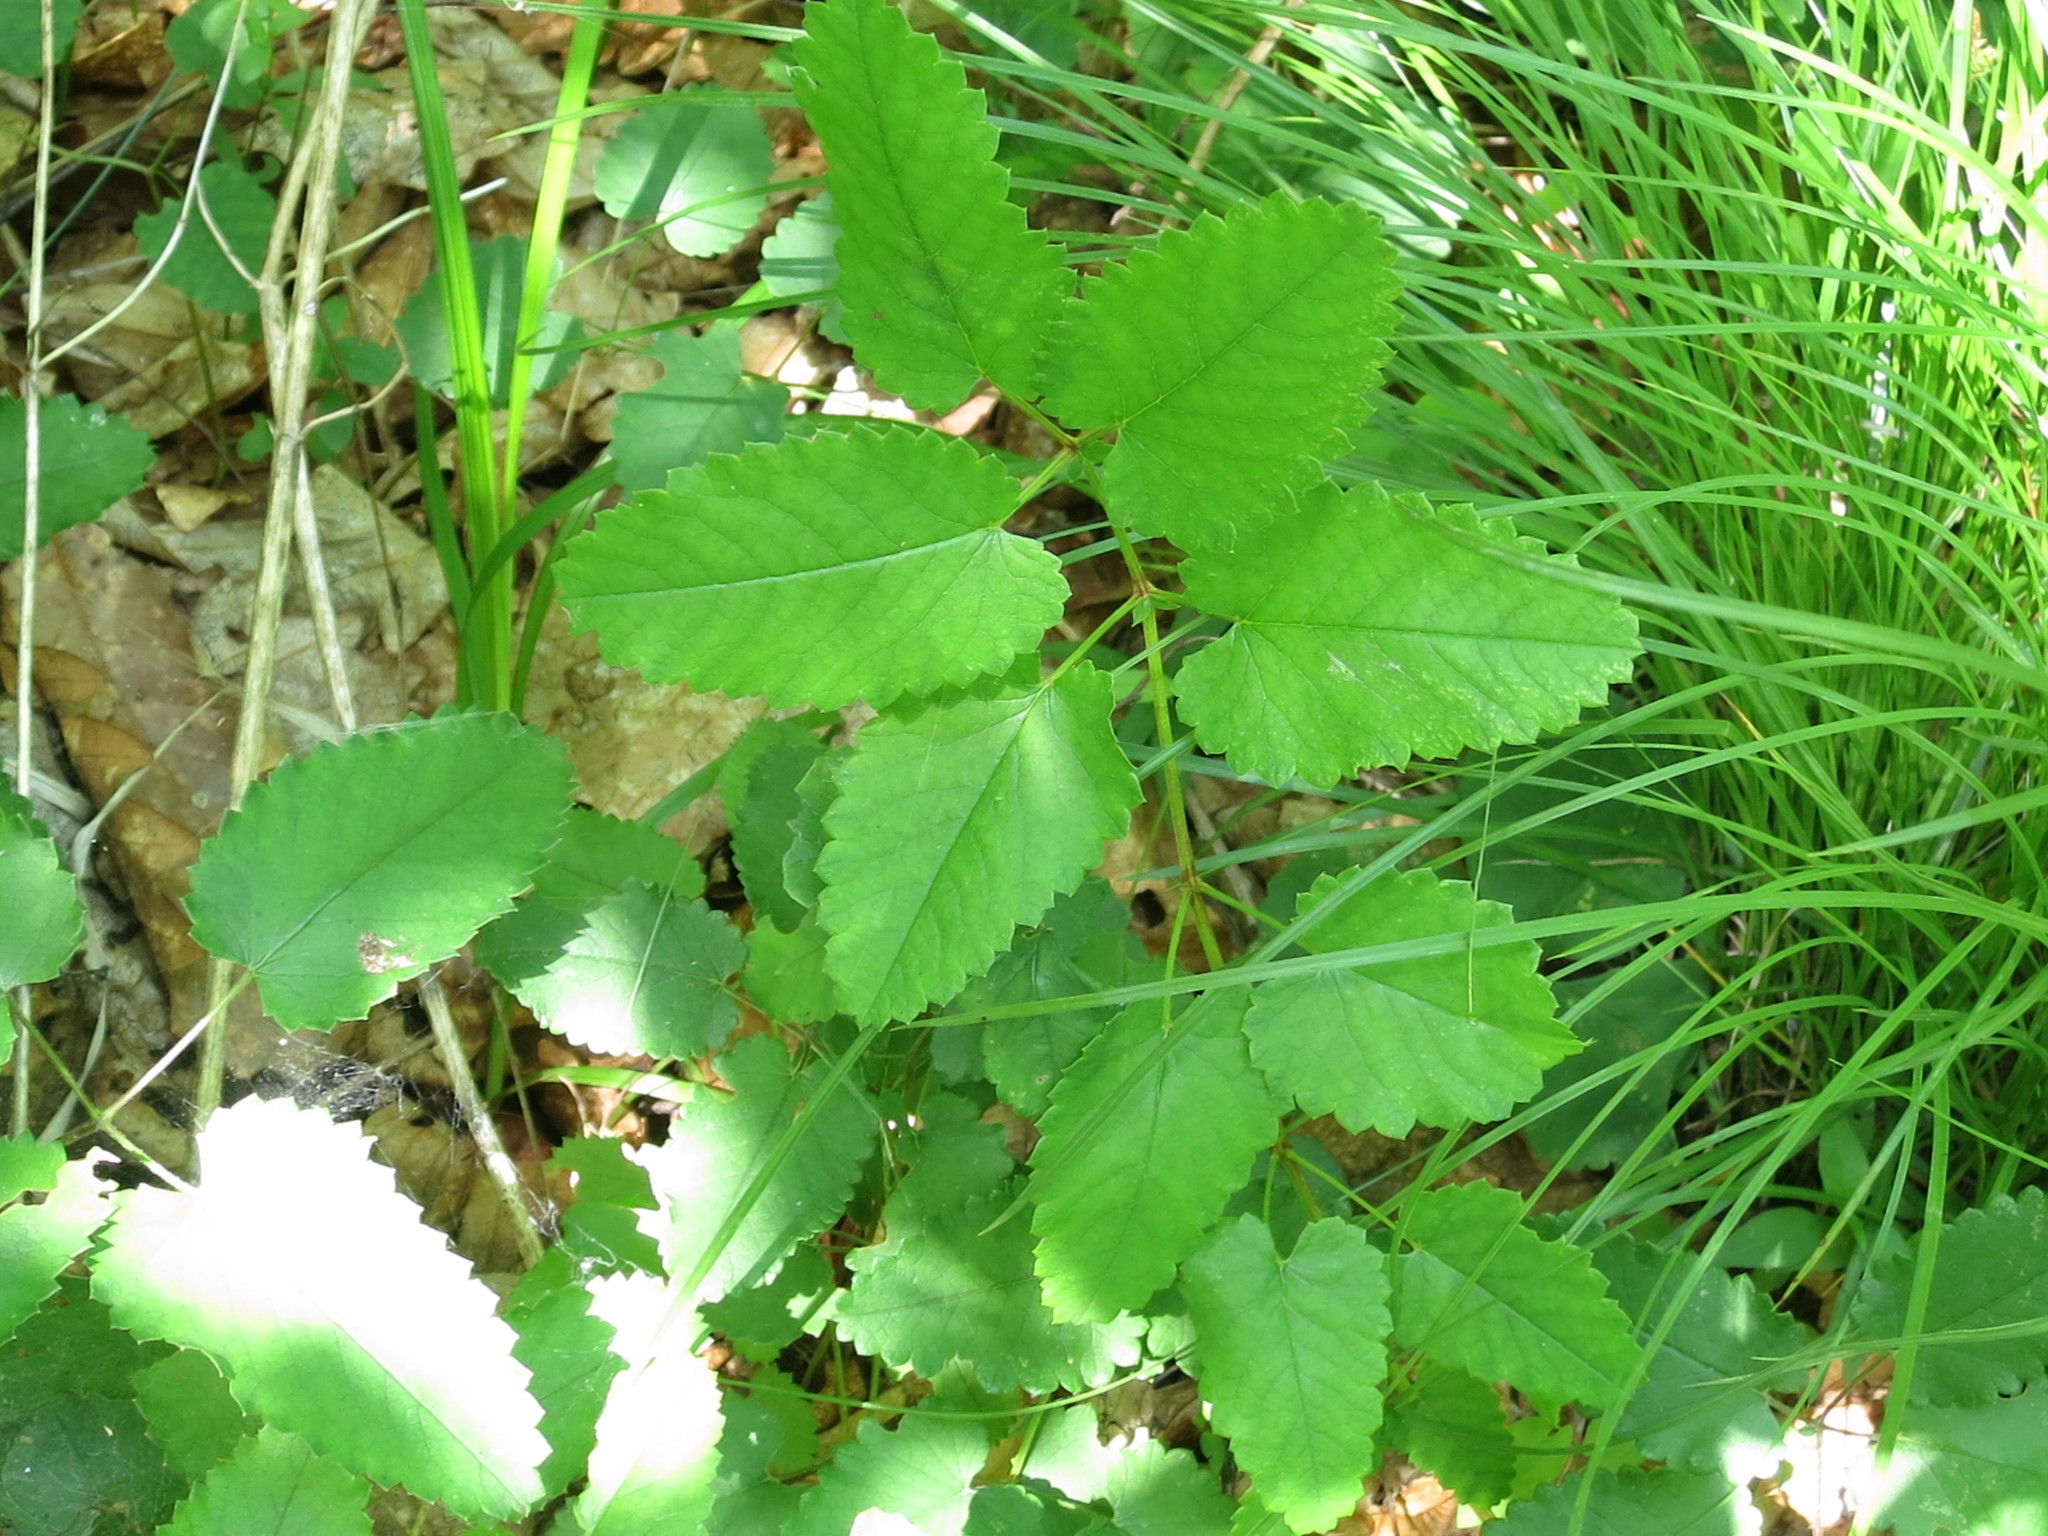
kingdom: Plantae
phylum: Tracheophyta
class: Magnoliopsida
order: Rosales
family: Rosaceae
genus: Sanguisorba
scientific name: Sanguisorba officinalis
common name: Great burnet
